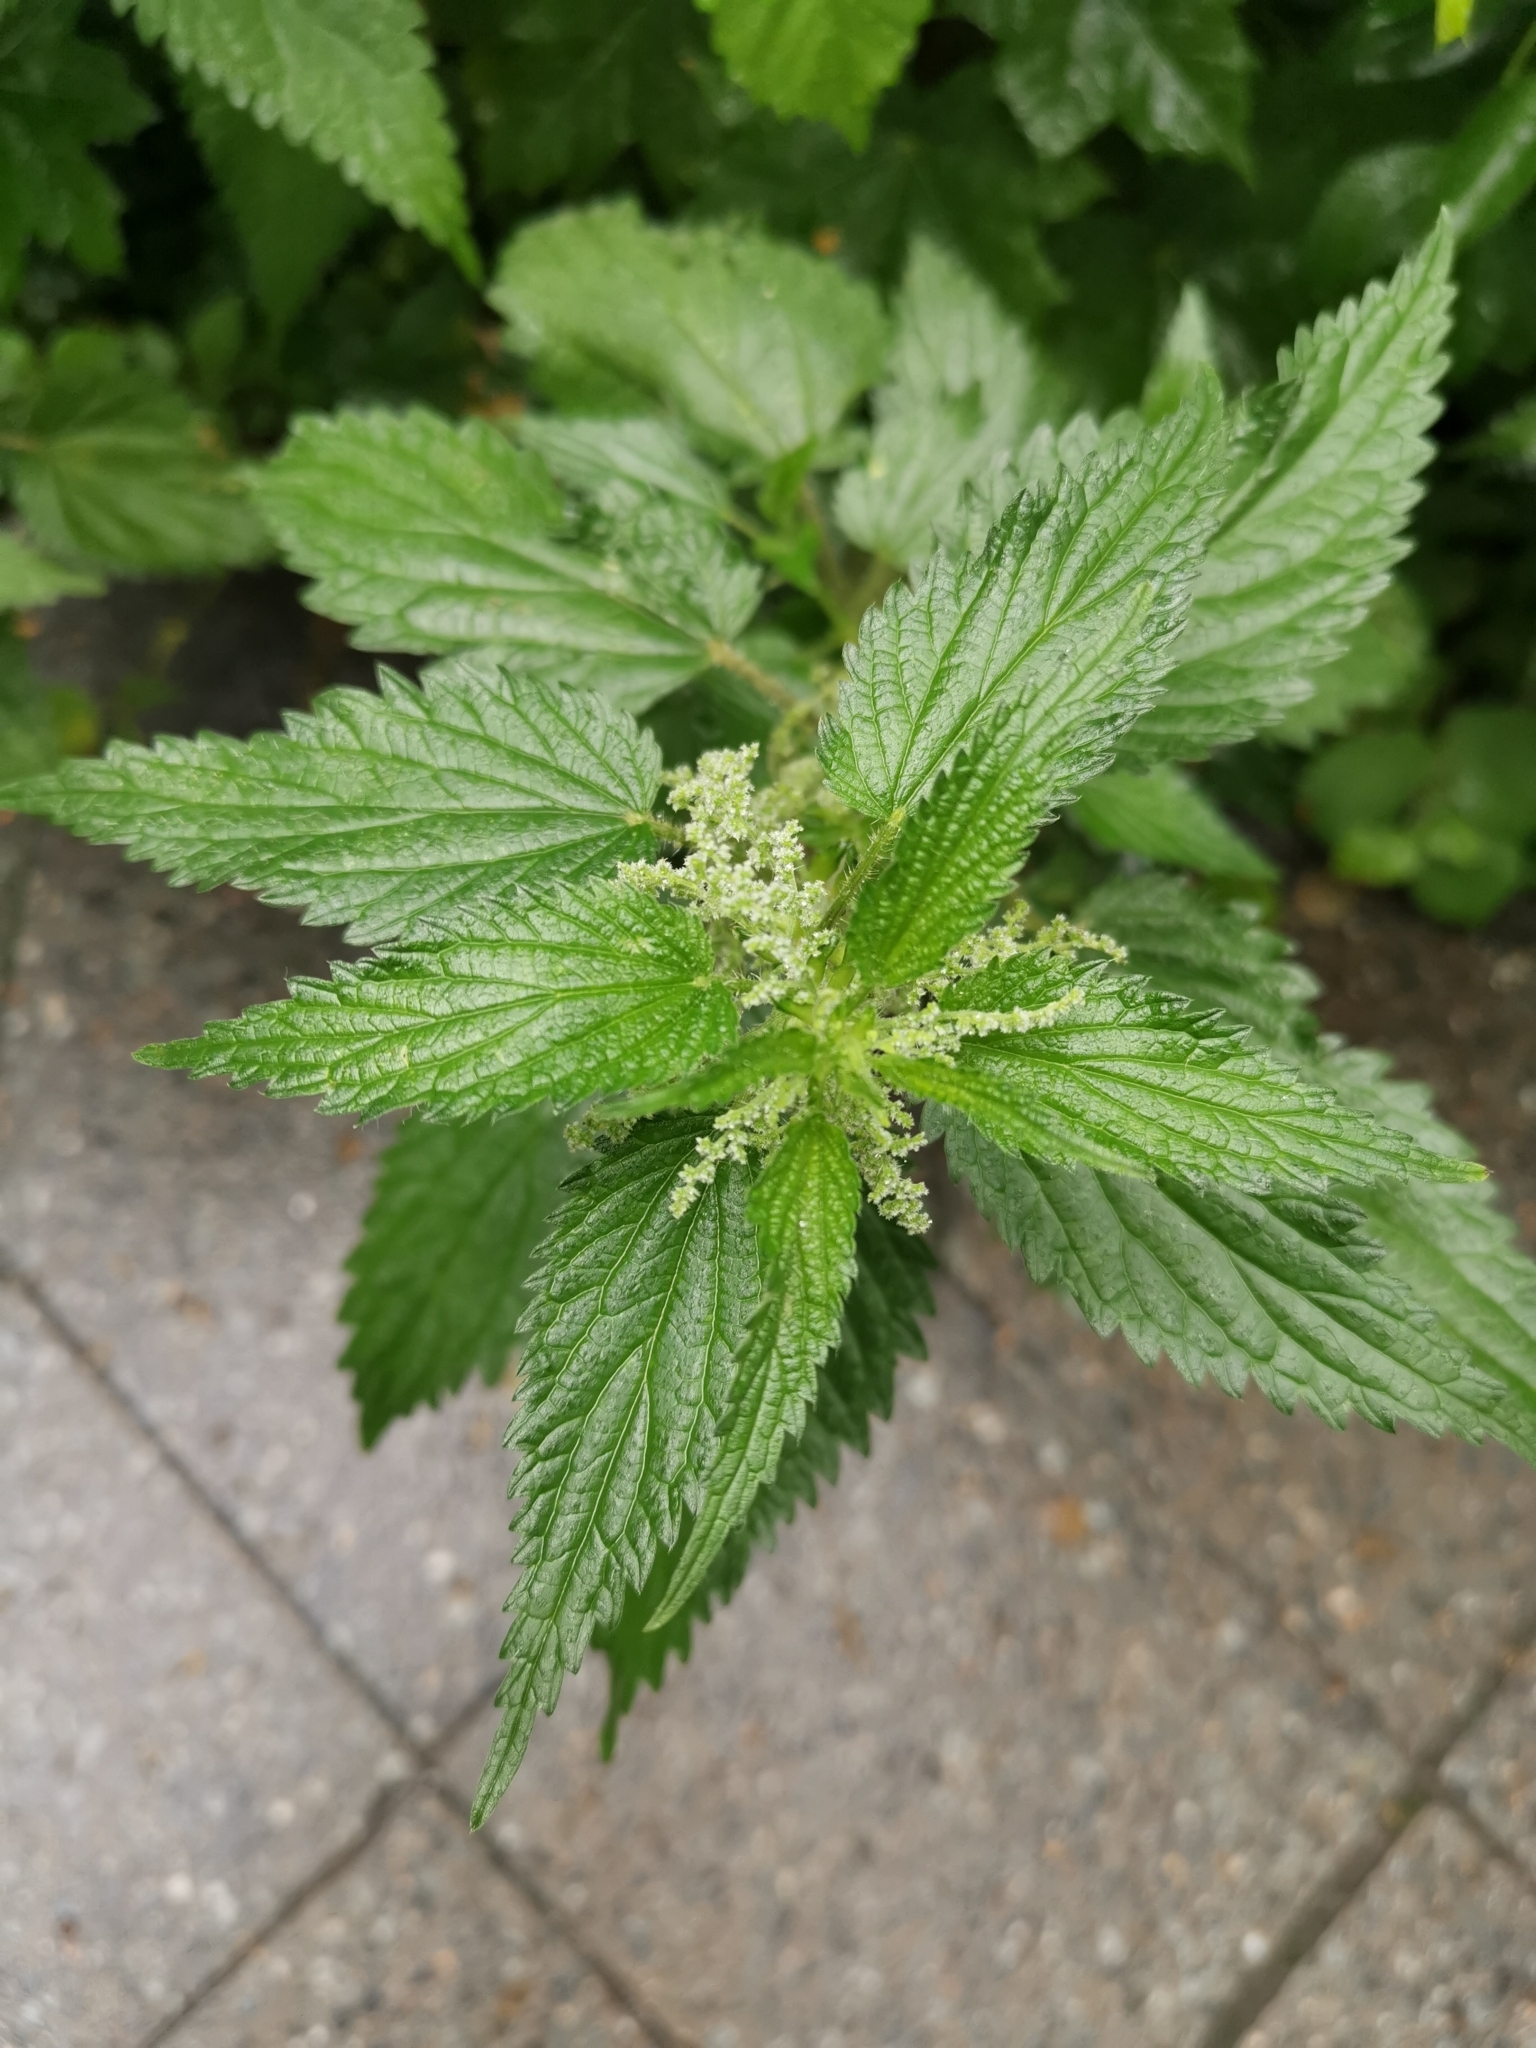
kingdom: Plantae
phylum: Tracheophyta
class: Magnoliopsida
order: Rosales
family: Urticaceae
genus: Urtica
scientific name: Urtica dioica
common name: Common nettle
